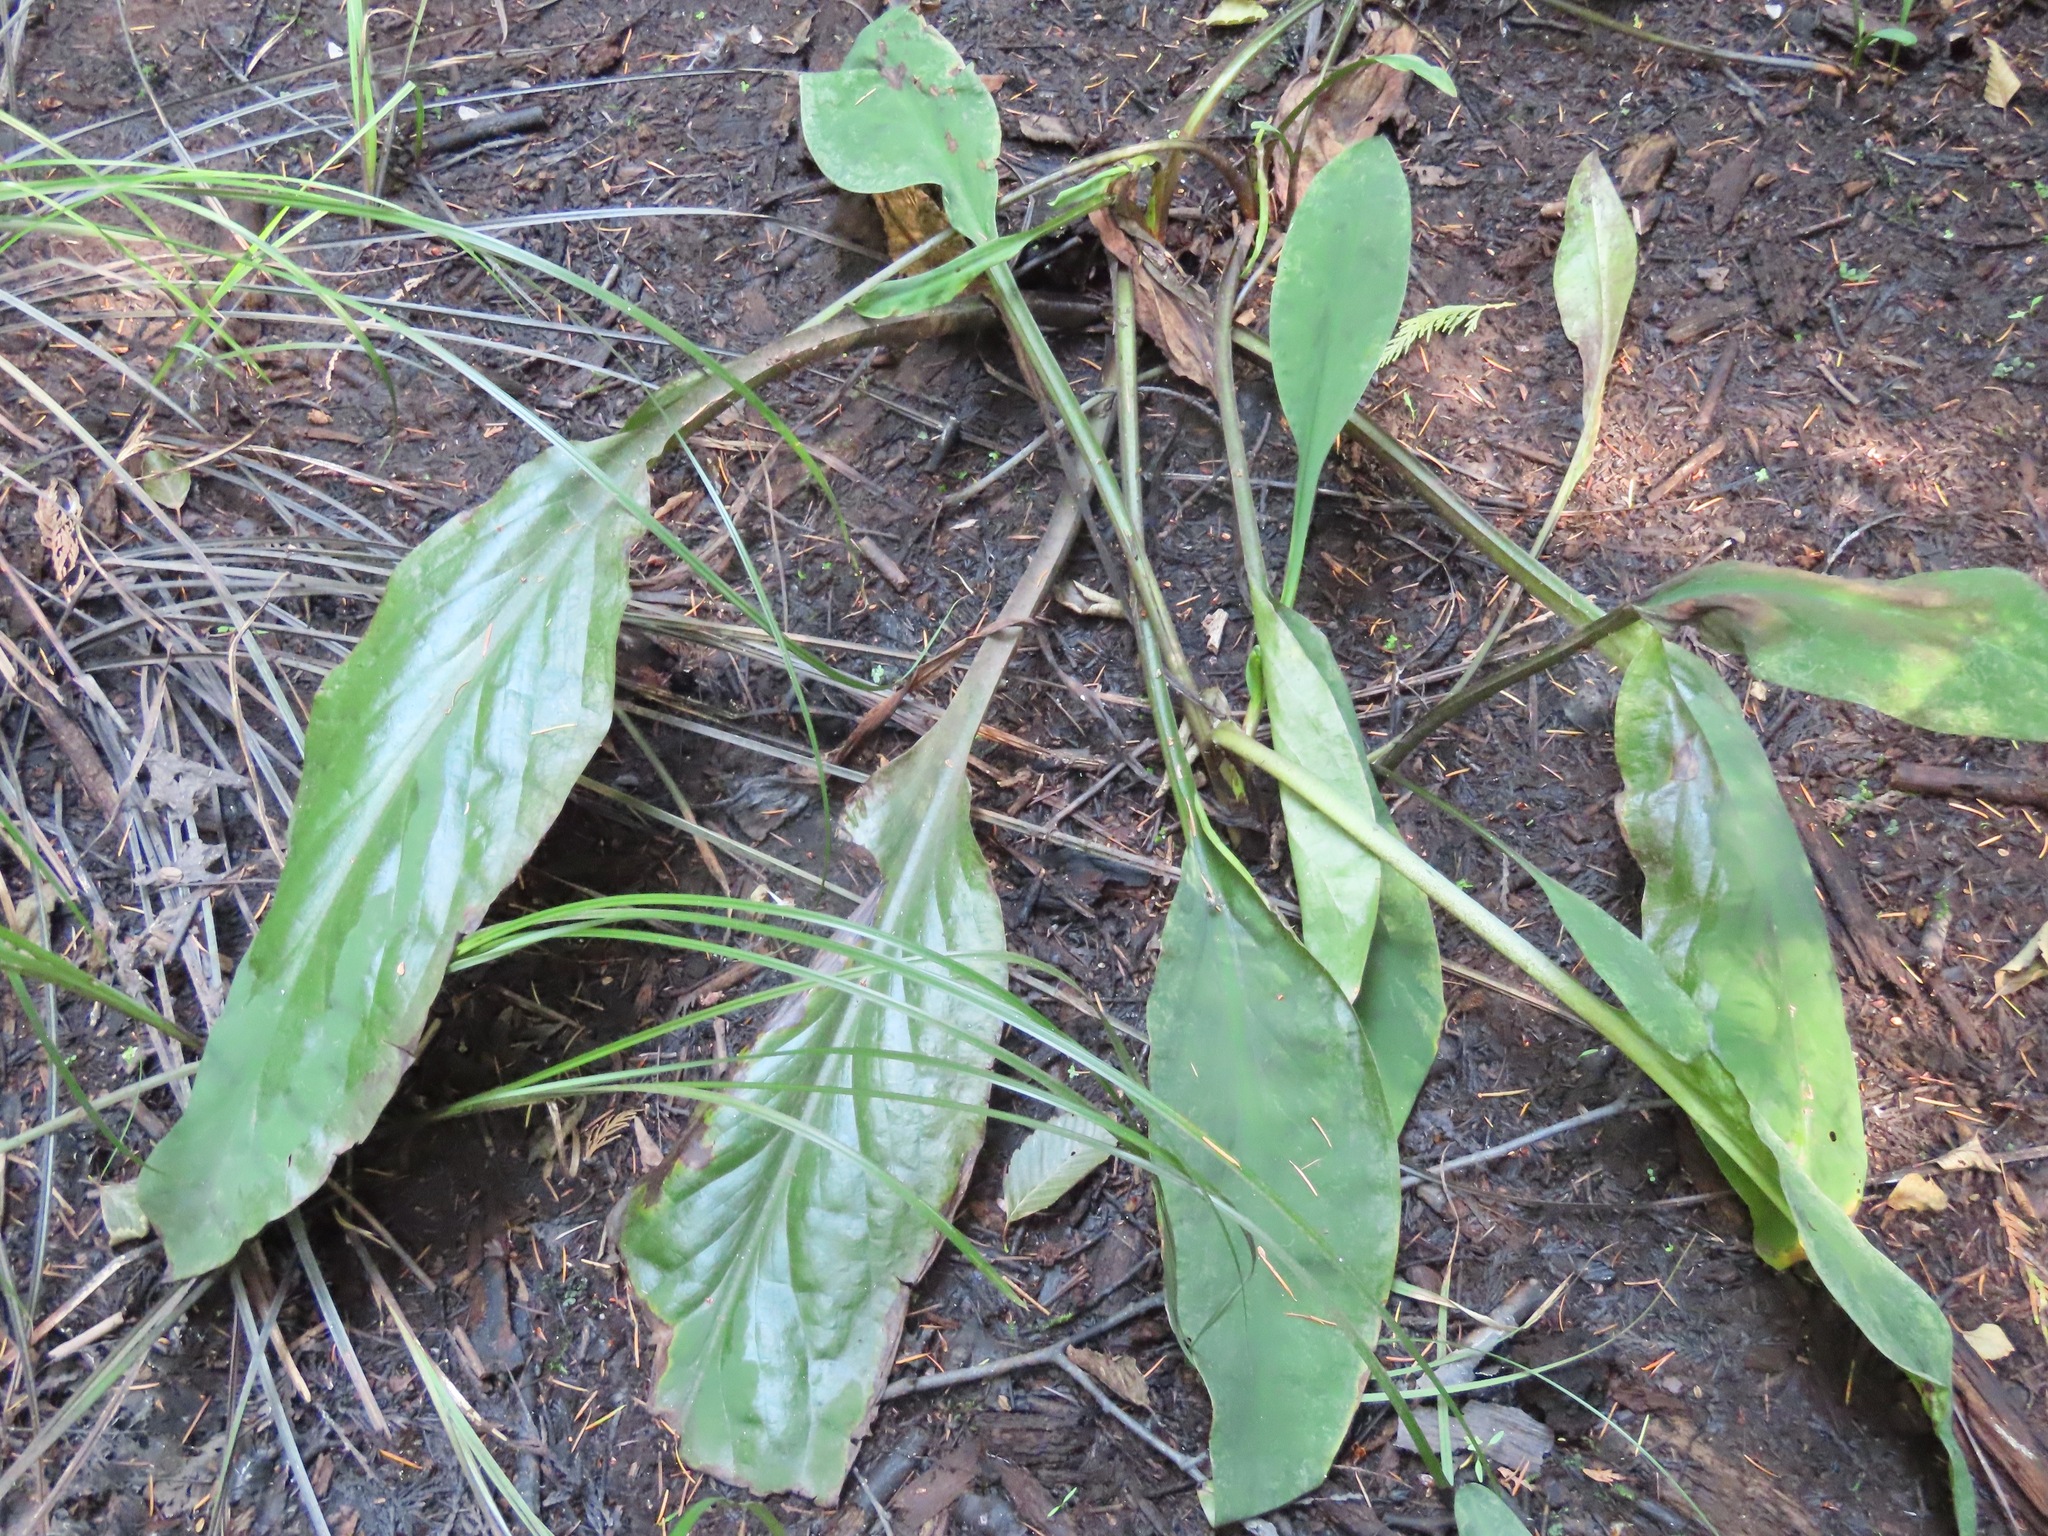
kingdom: Plantae
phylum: Tracheophyta
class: Liliopsida
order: Alismatales
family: Araceae
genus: Lysichiton
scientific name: Lysichiton americanus
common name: American skunk cabbage
